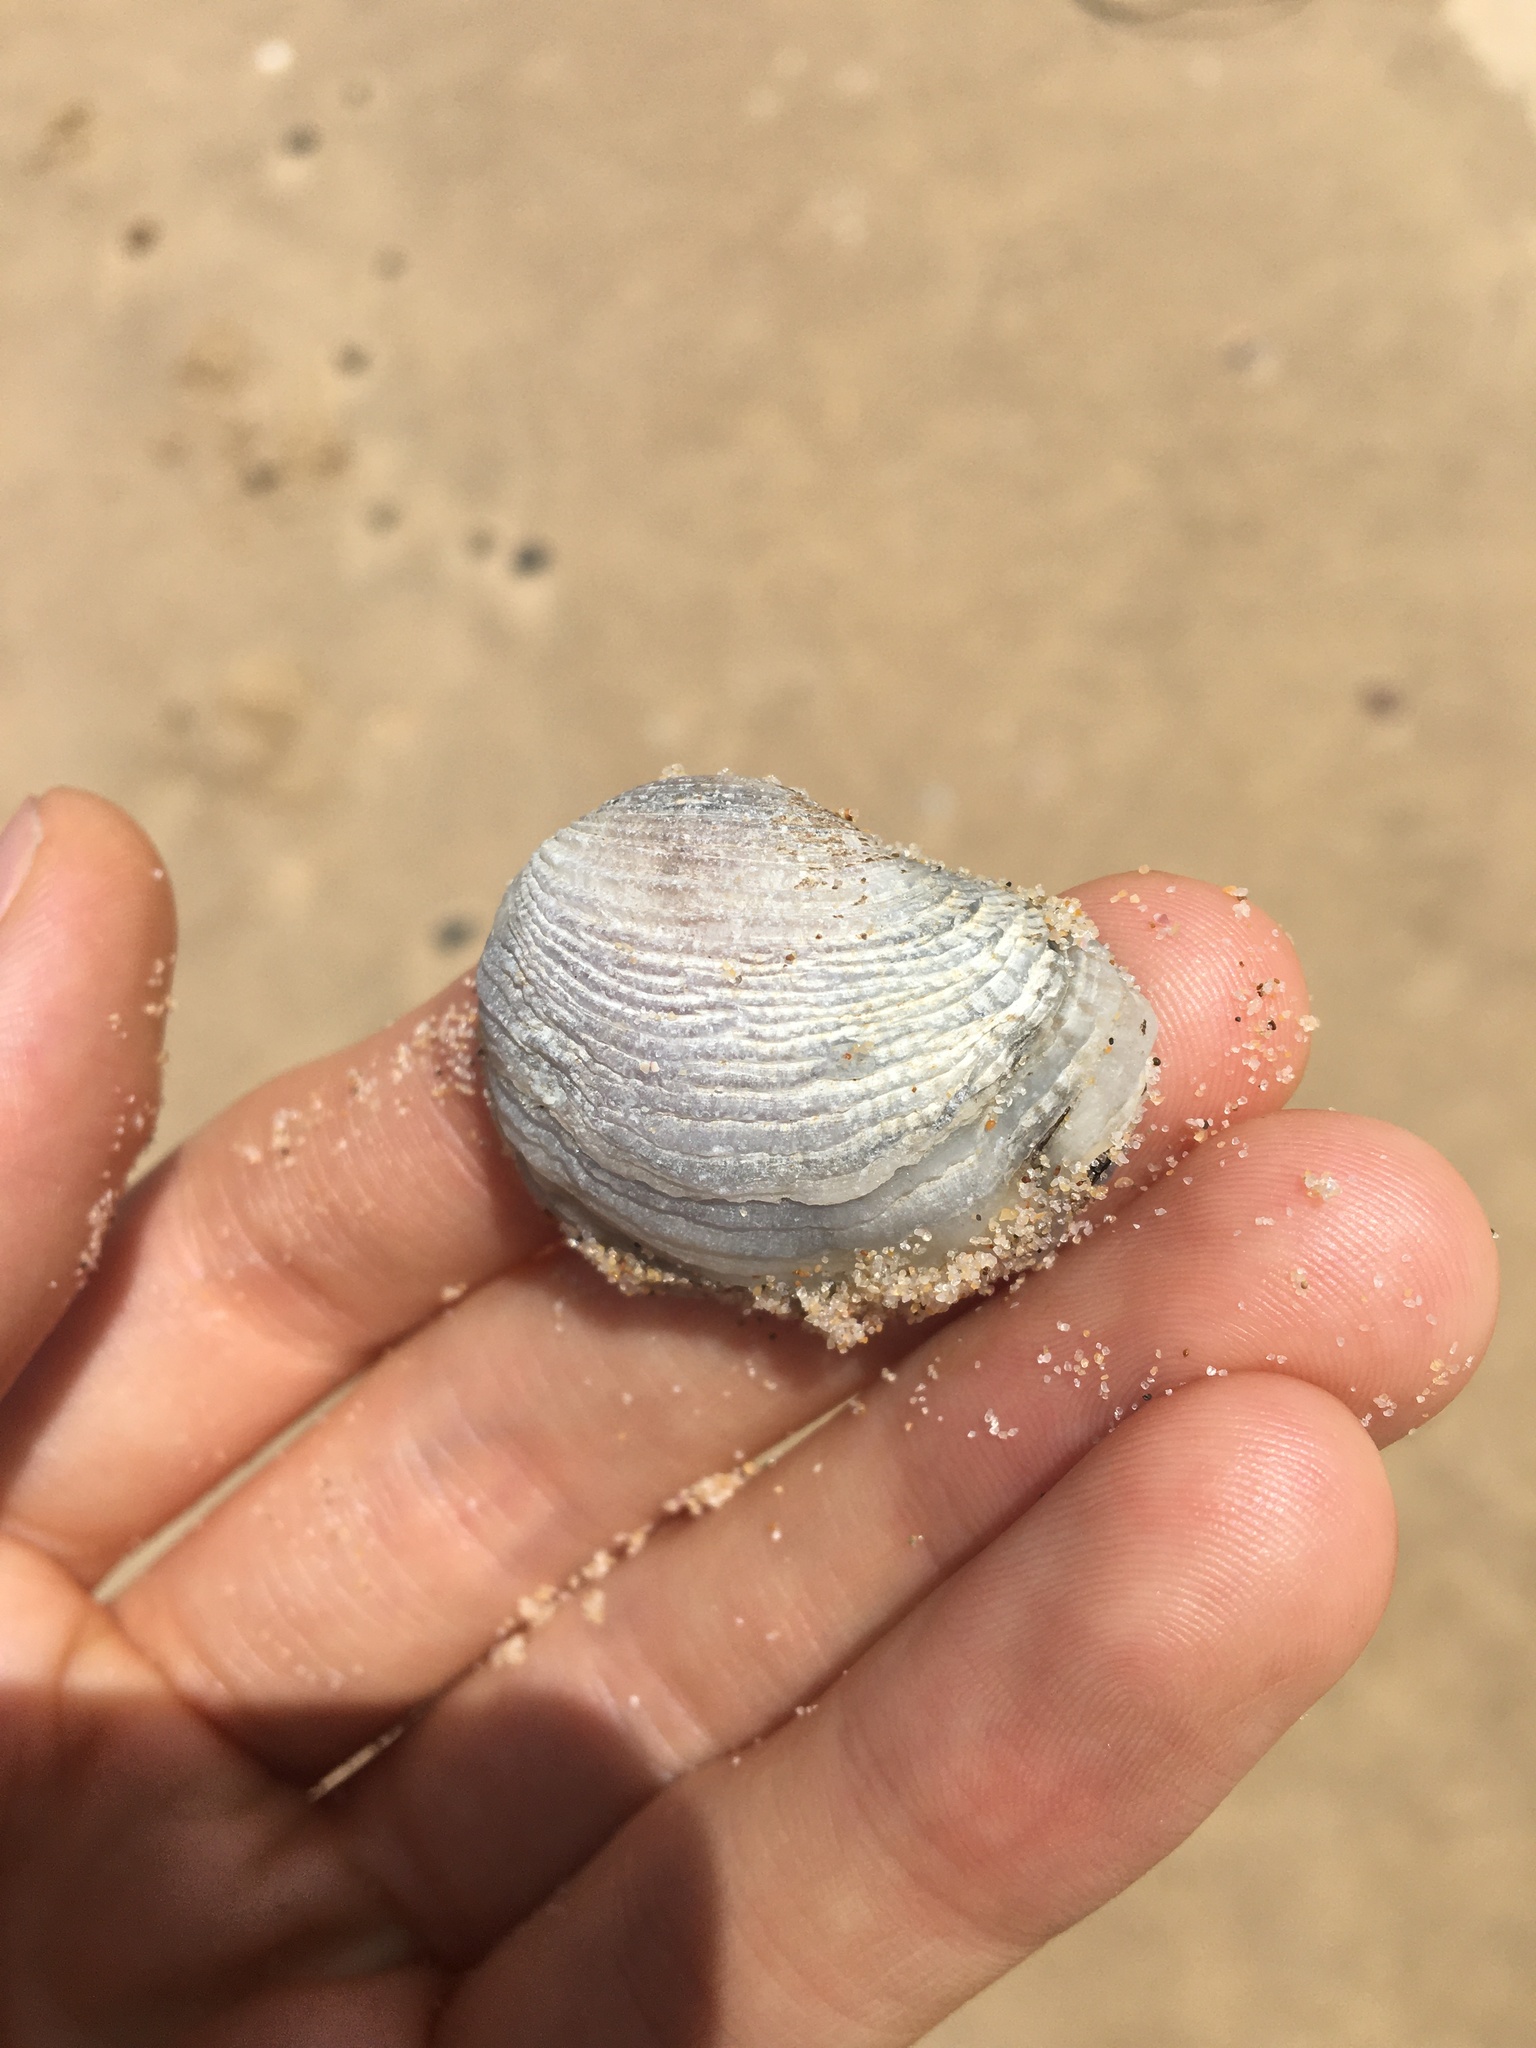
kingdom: Animalia
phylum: Mollusca
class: Bivalvia
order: Venerida
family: Veneridae
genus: Irus
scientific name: Irus cumingii
